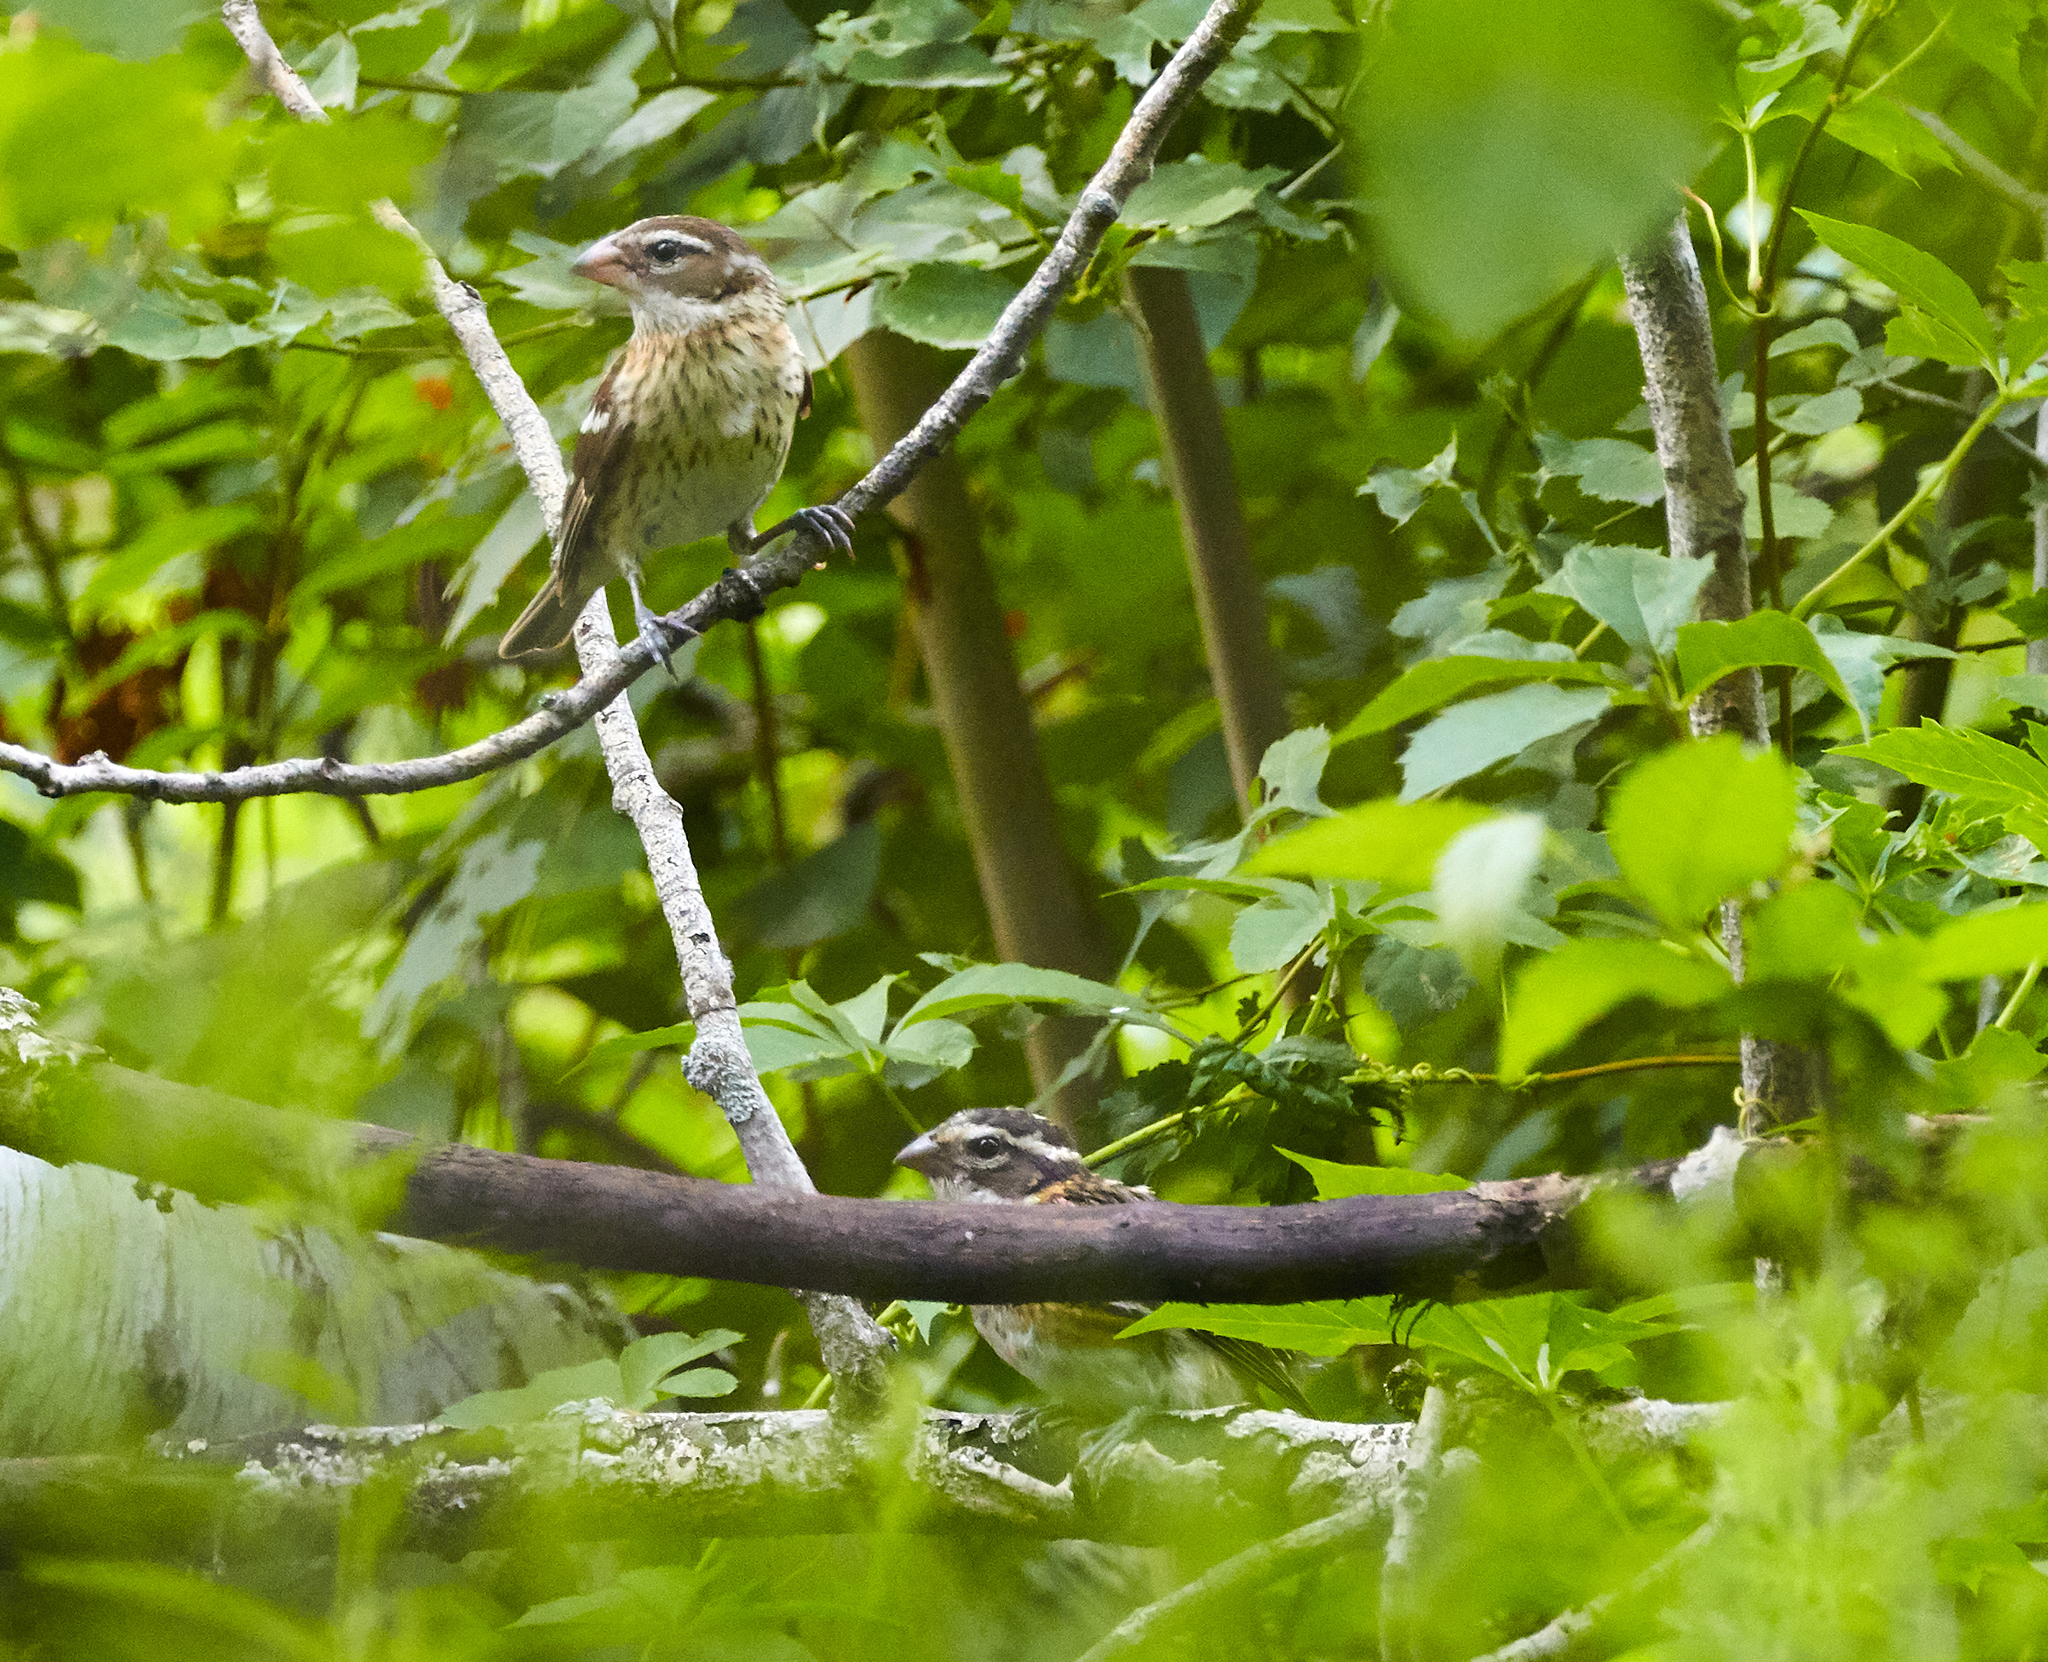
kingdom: Animalia
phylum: Chordata
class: Aves
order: Passeriformes
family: Cardinalidae
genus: Pheucticus
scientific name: Pheucticus ludovicianus
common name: Rose-breasted grosbeak
